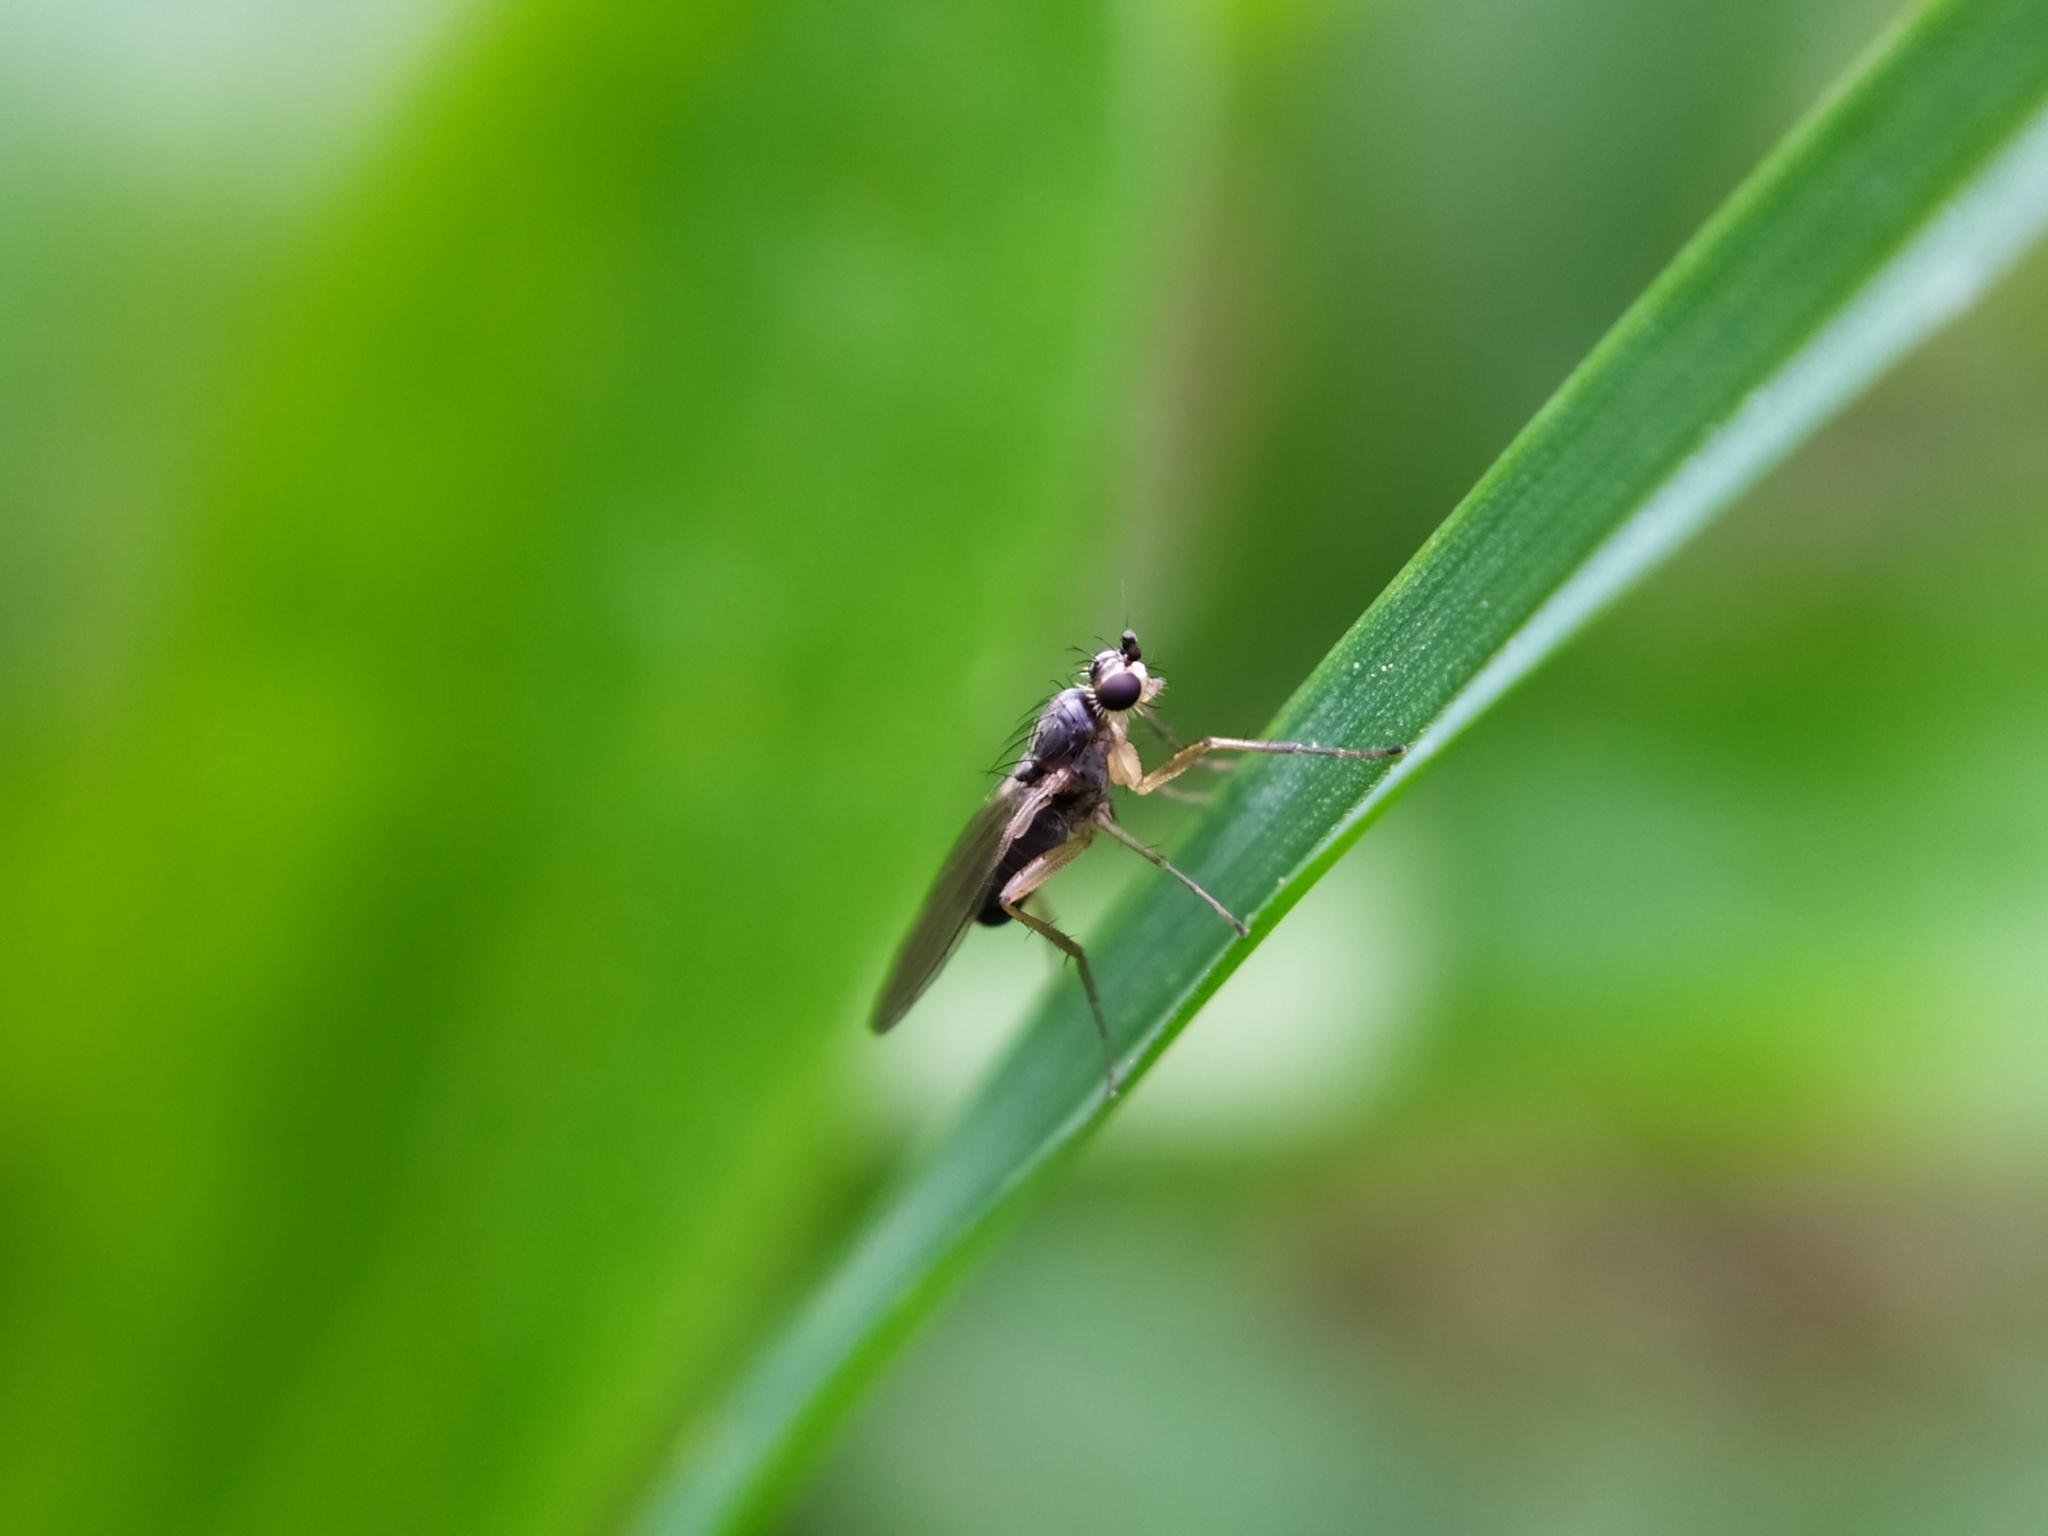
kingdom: Animalia
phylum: Arthropoda
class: Insecta
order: Diptera
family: Lonchopteridae
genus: Lonchoptera
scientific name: Lonchoptera lutea
